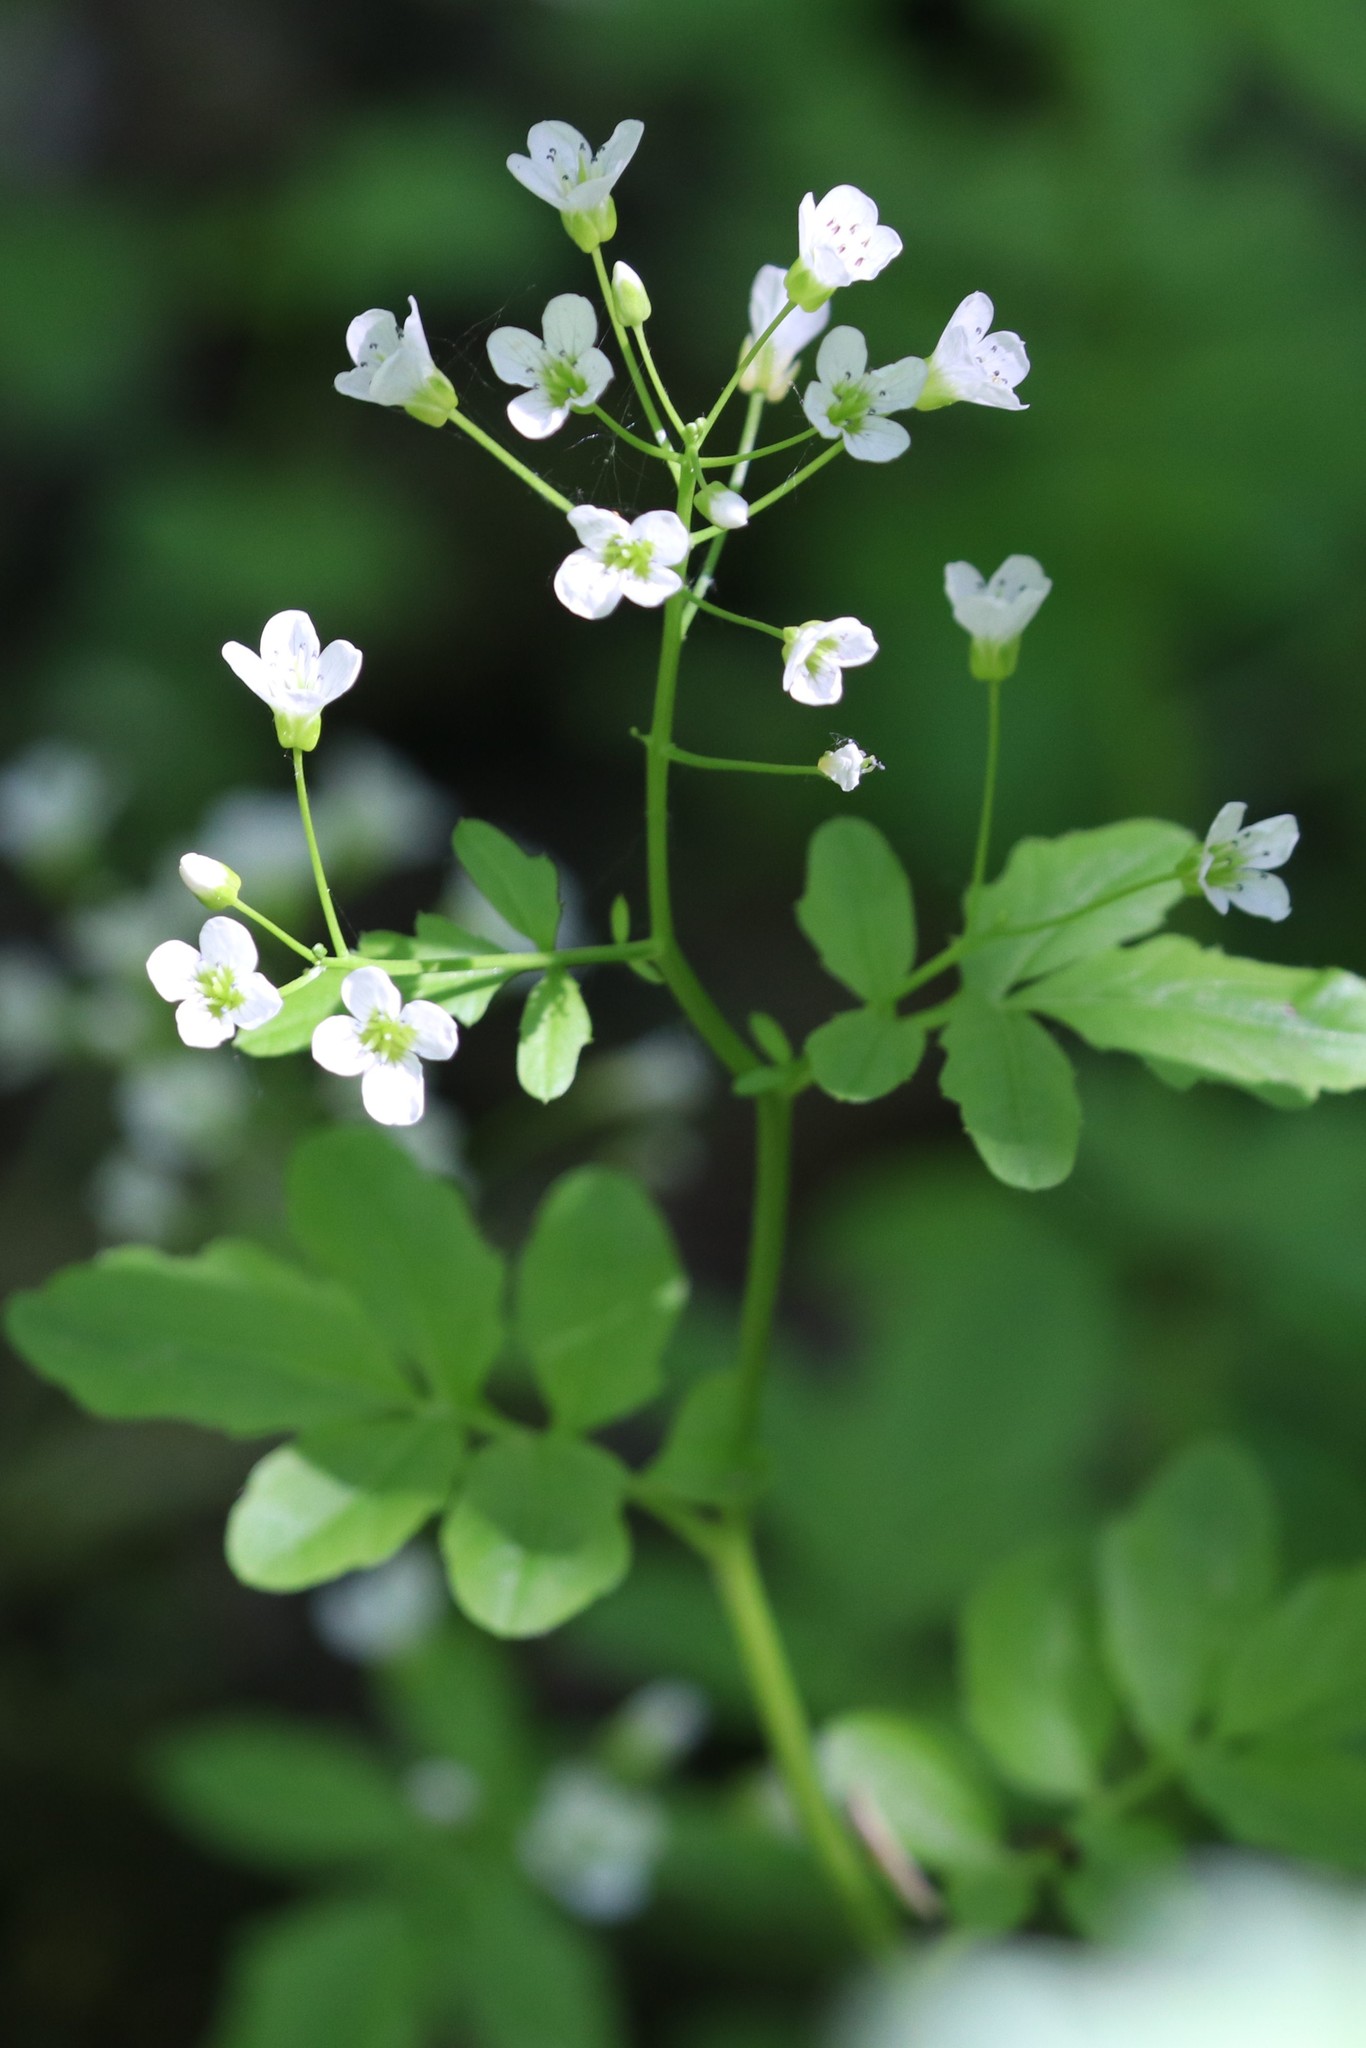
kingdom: Plantae
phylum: Tracheophyta
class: Magnoliopsida
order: Brassicales
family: Brassicaceae
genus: Cardamine
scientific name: Cardamine amara
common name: Large bitter-cress
